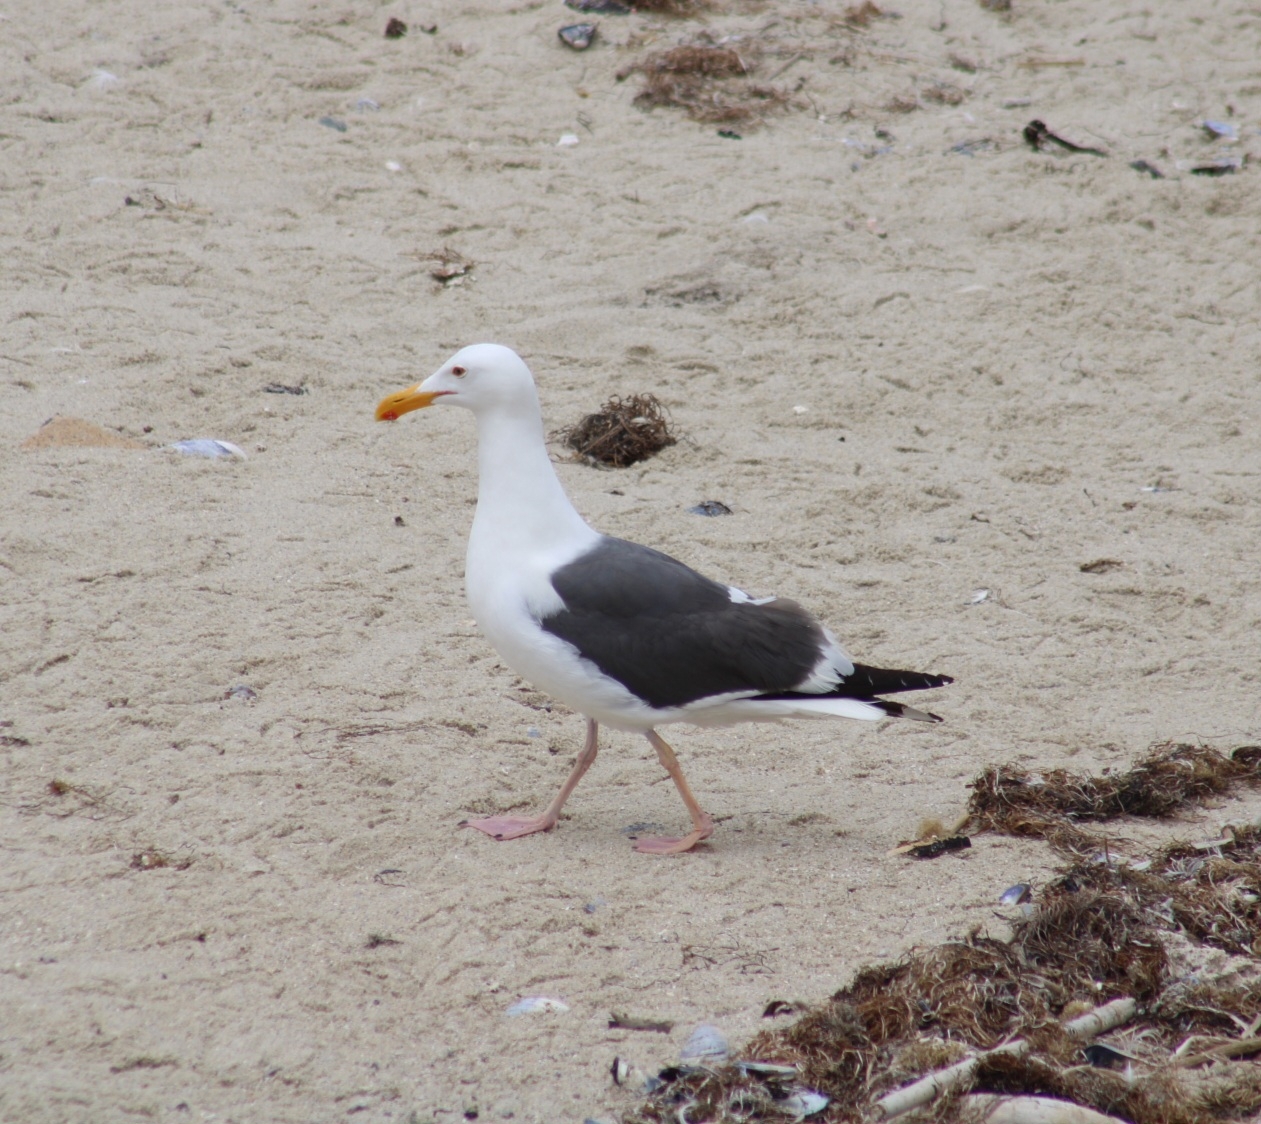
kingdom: Animalia
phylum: Chordata
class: Aves
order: Charadriiformes
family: Laridae
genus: Larus
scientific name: Larus occidentalis
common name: Western gull
